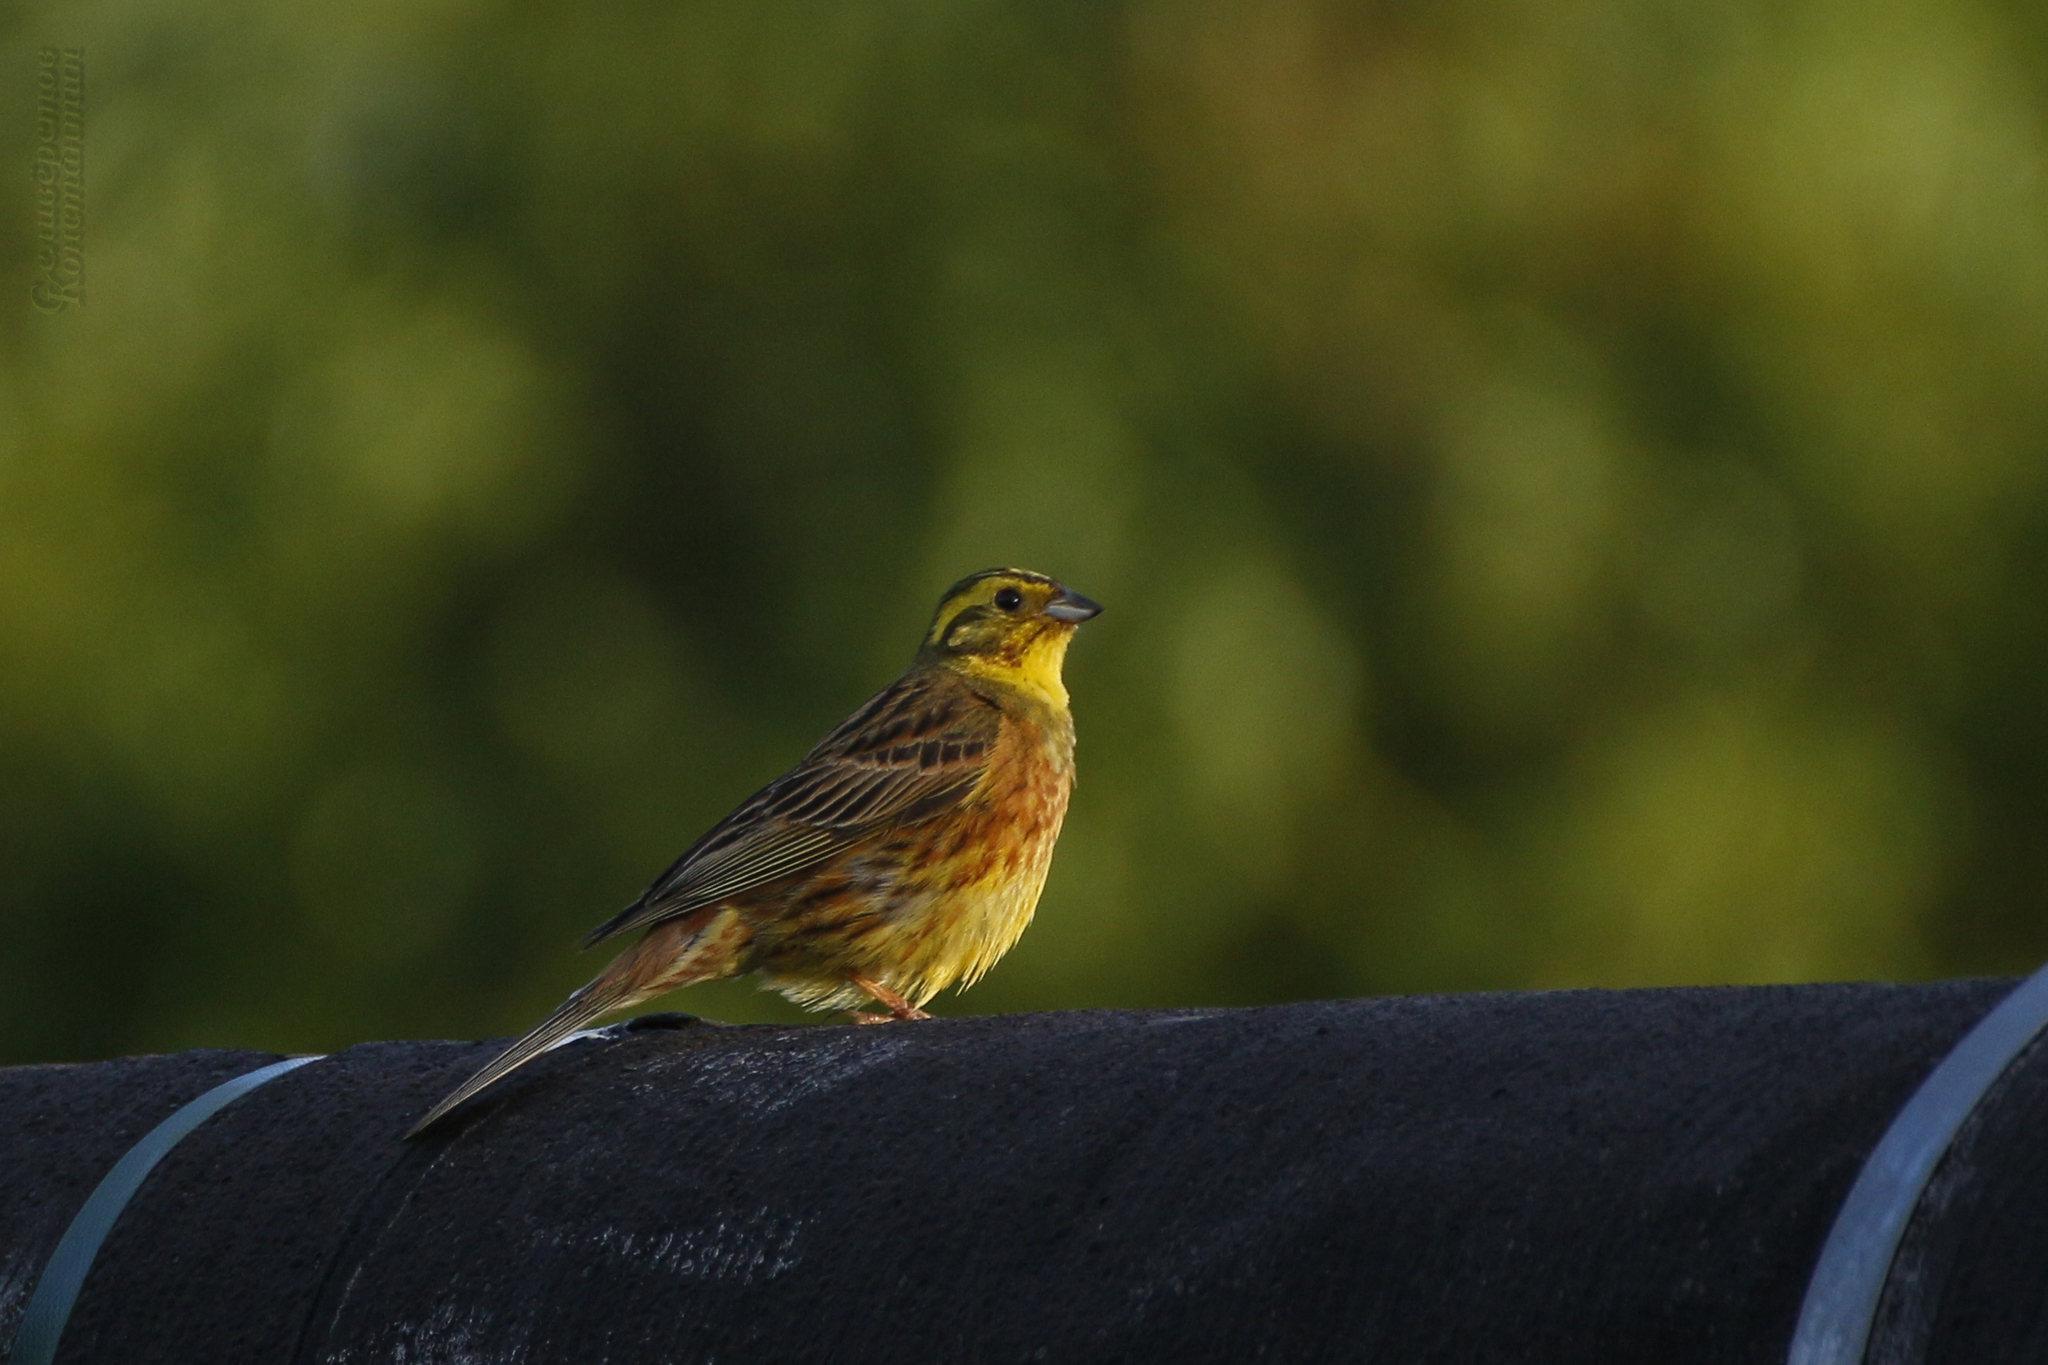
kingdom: Animalia
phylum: Chordata
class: Aves
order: Passeriformes
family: Emberizidae
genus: Emberiza
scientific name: Emberiza citrinella
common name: Yellowhammer
